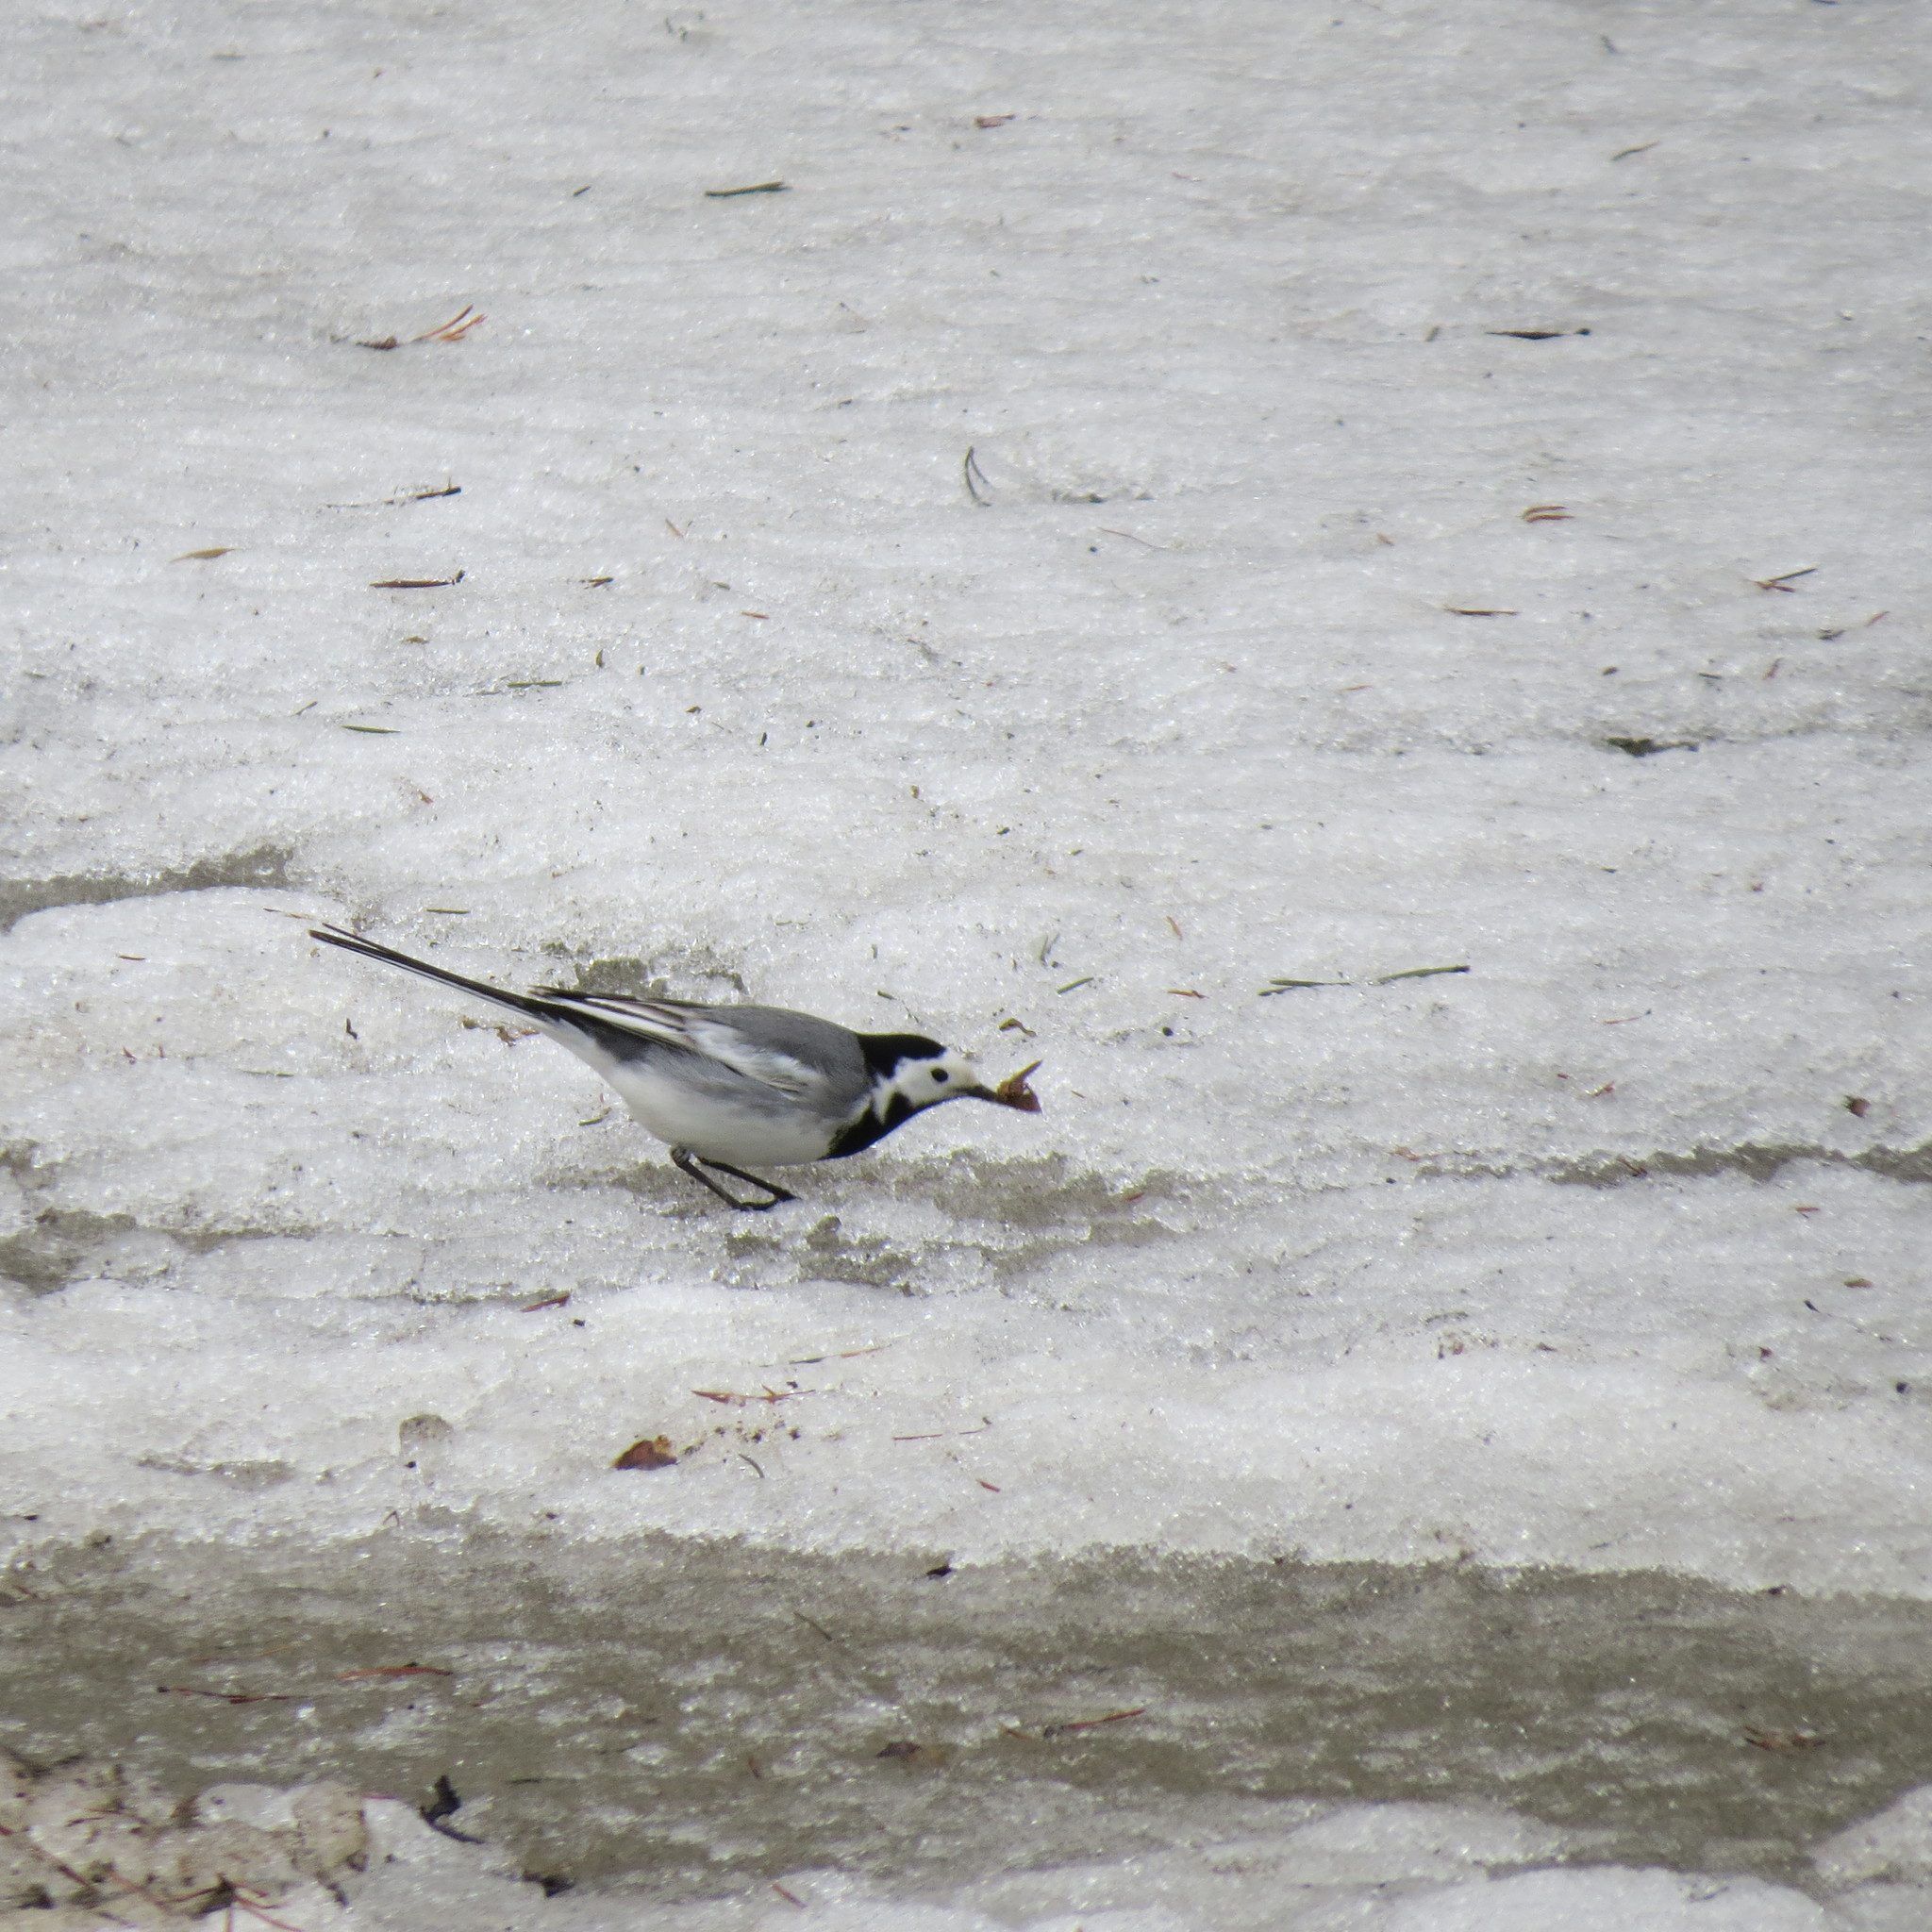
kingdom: Animalia
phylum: Chordata
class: Aves
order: Passeriformes
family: Motacillidae
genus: Motacilla
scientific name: Motacilla alba
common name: White wagtail
